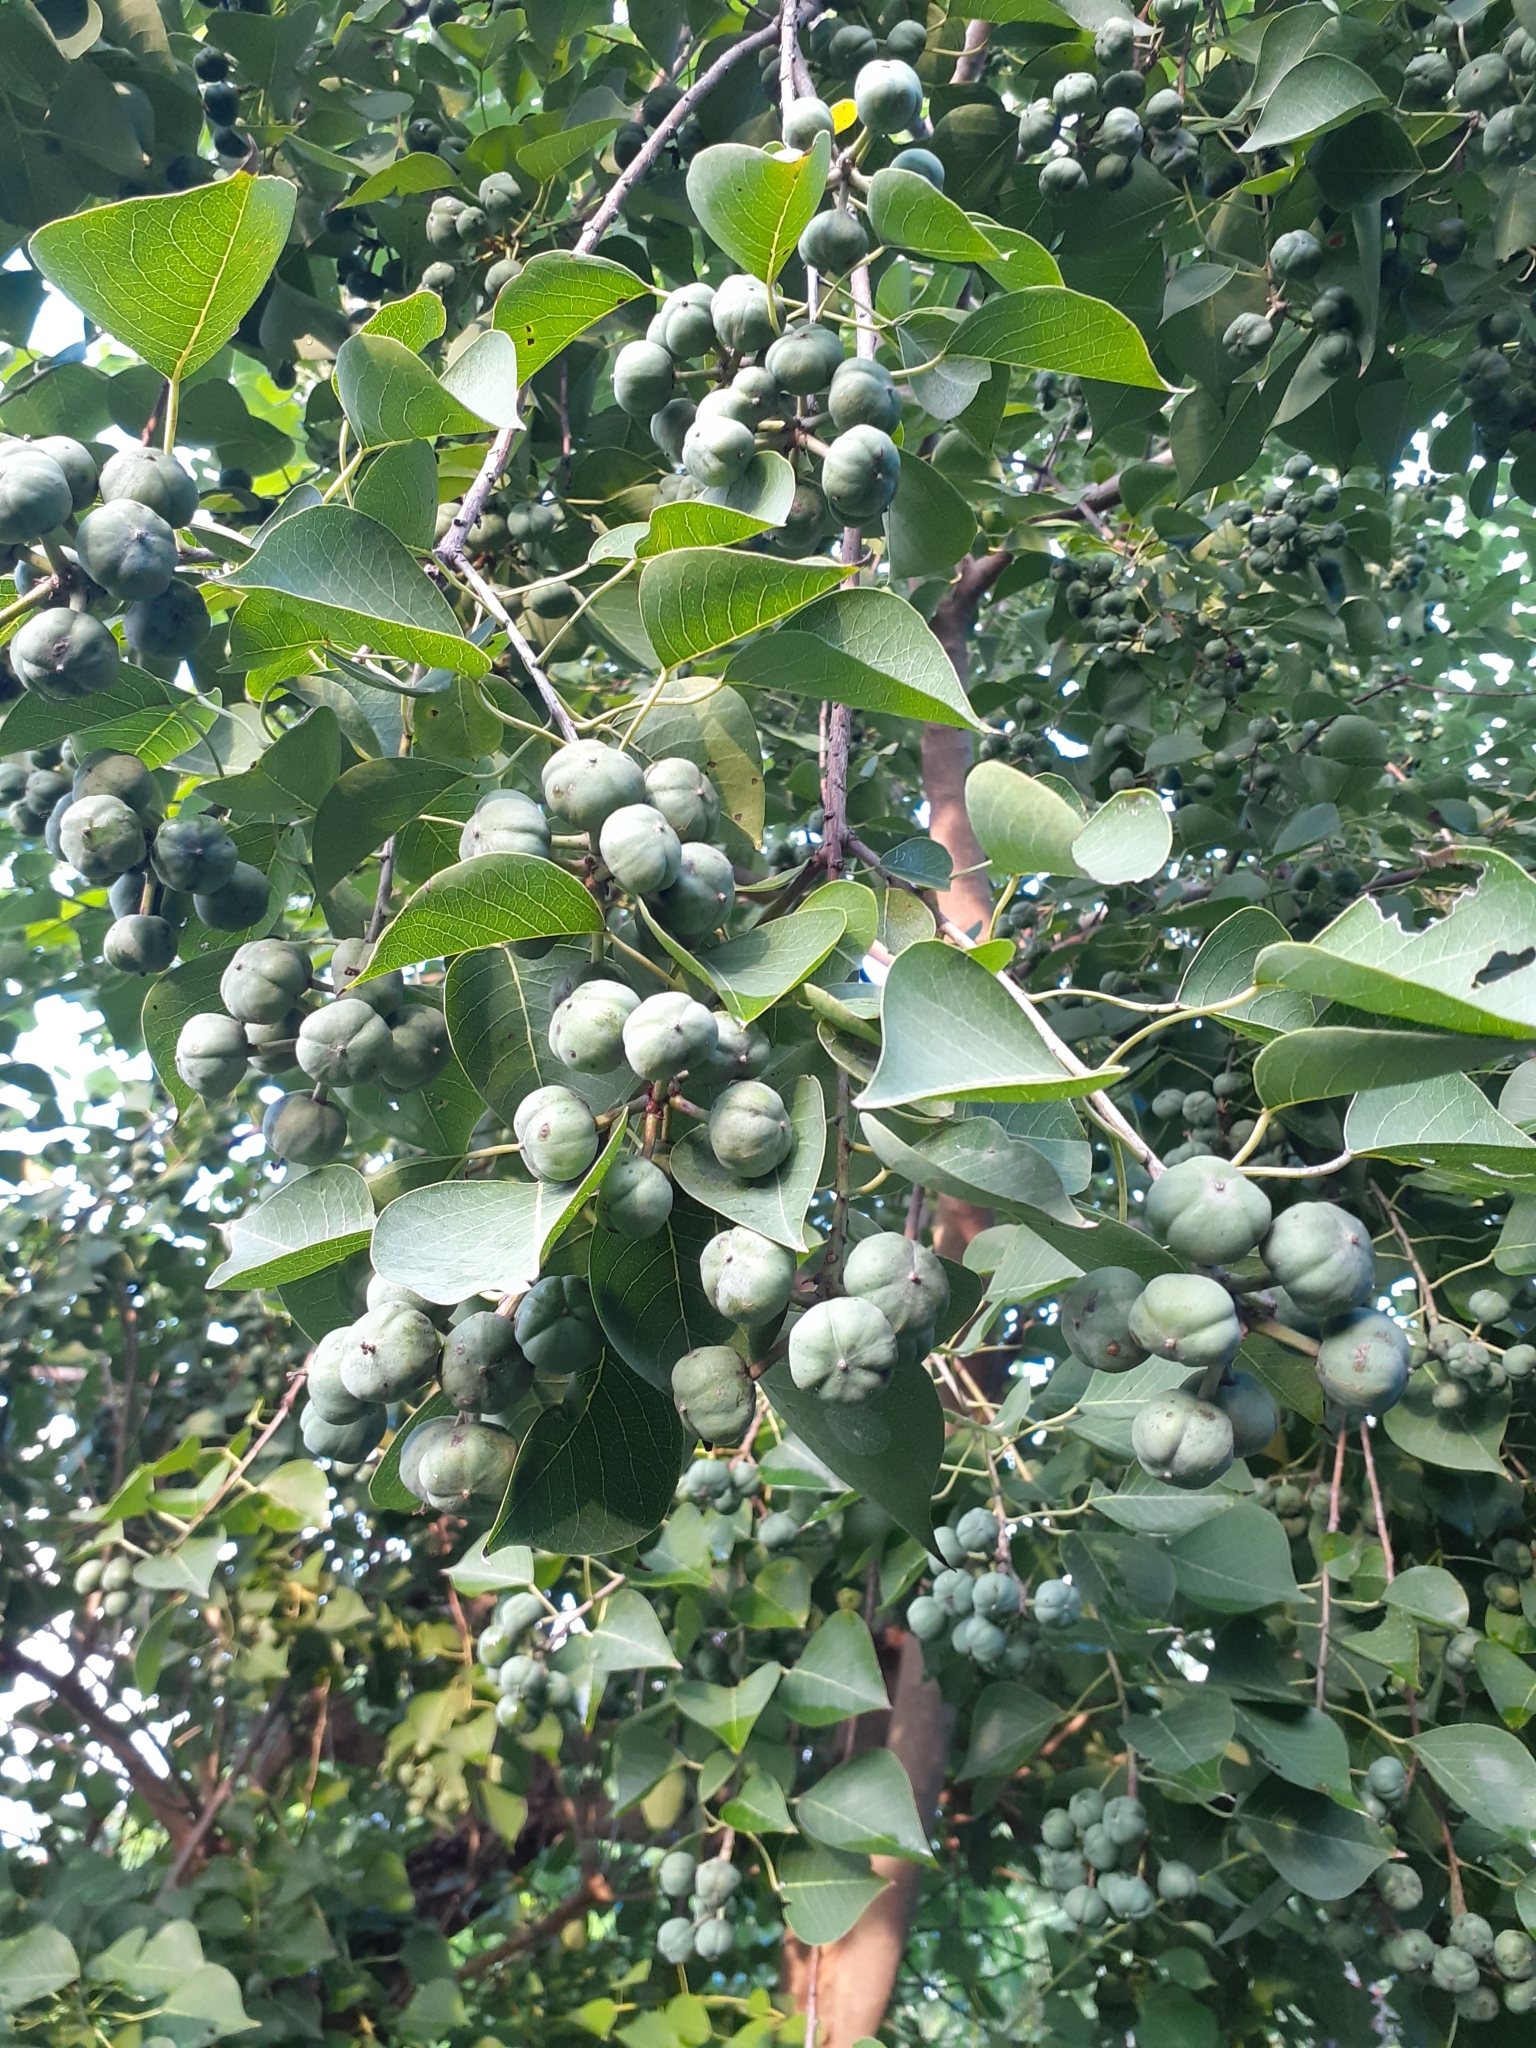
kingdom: Plantae
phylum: Tracheophyta
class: Magnoliopsida
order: Malpighiales
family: Euphorbiaceae
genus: Triadica
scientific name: Triadica sebifera
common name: Chinese tallow
